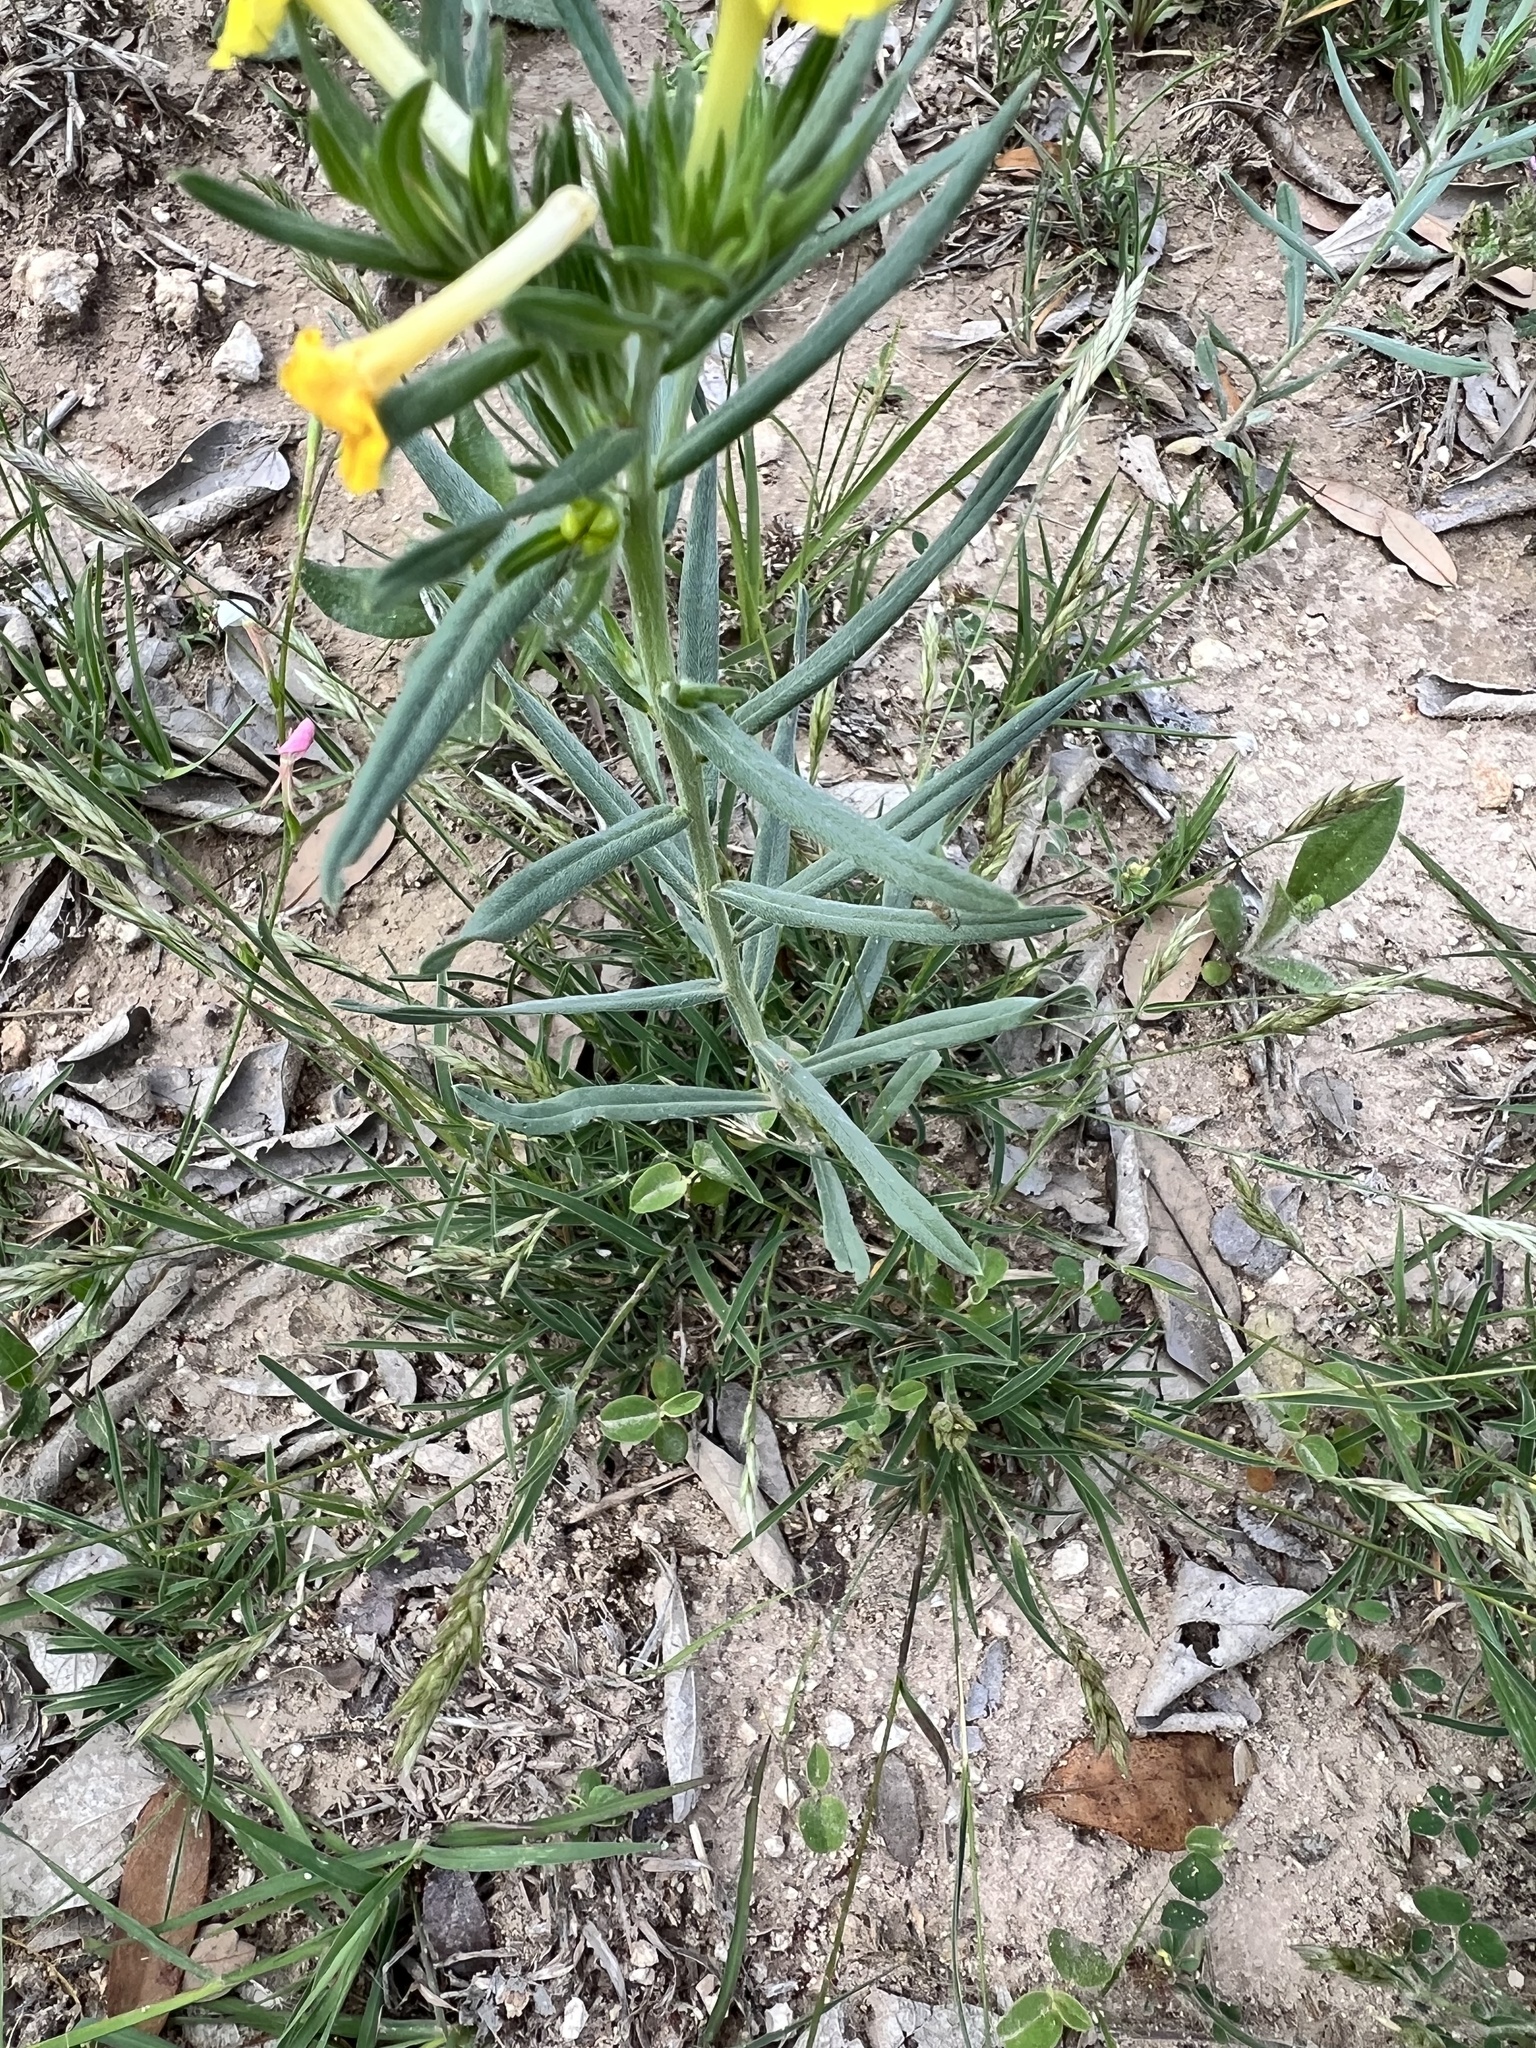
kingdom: Plantae
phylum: Tracheophyta
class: Magnoliopsida
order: Boraginales
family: Boraginaceae
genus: Lithospermum
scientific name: Lithospermum incisum
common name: Fringed gromwell
